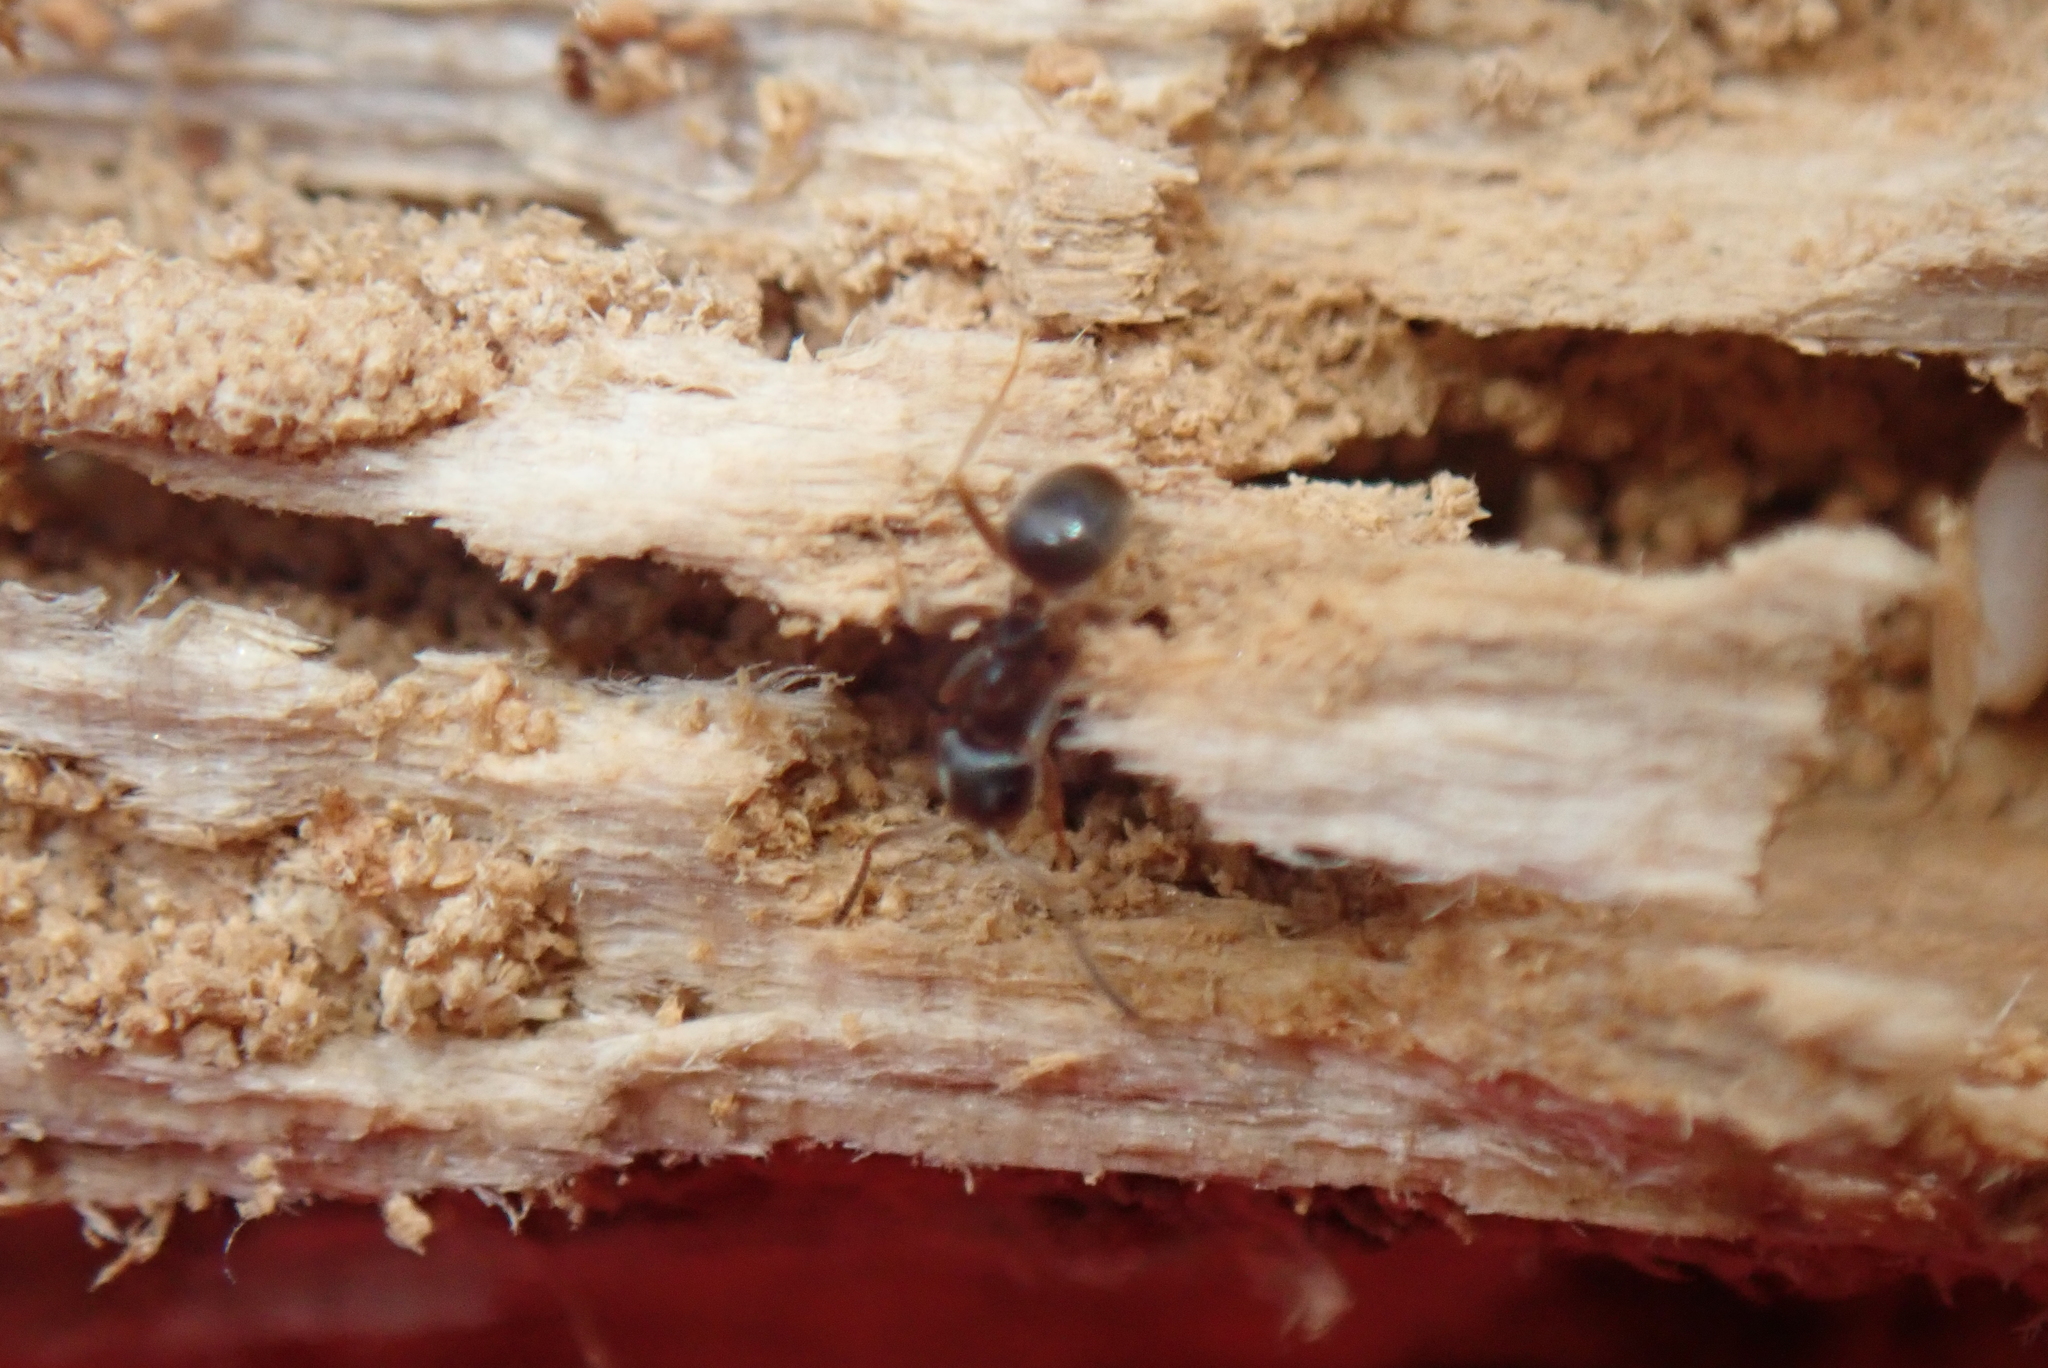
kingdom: Animalia
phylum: Arthropoda
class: Insecta
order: Hymenoptera
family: Formicidae
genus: Lasius
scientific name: Lasius americanus
